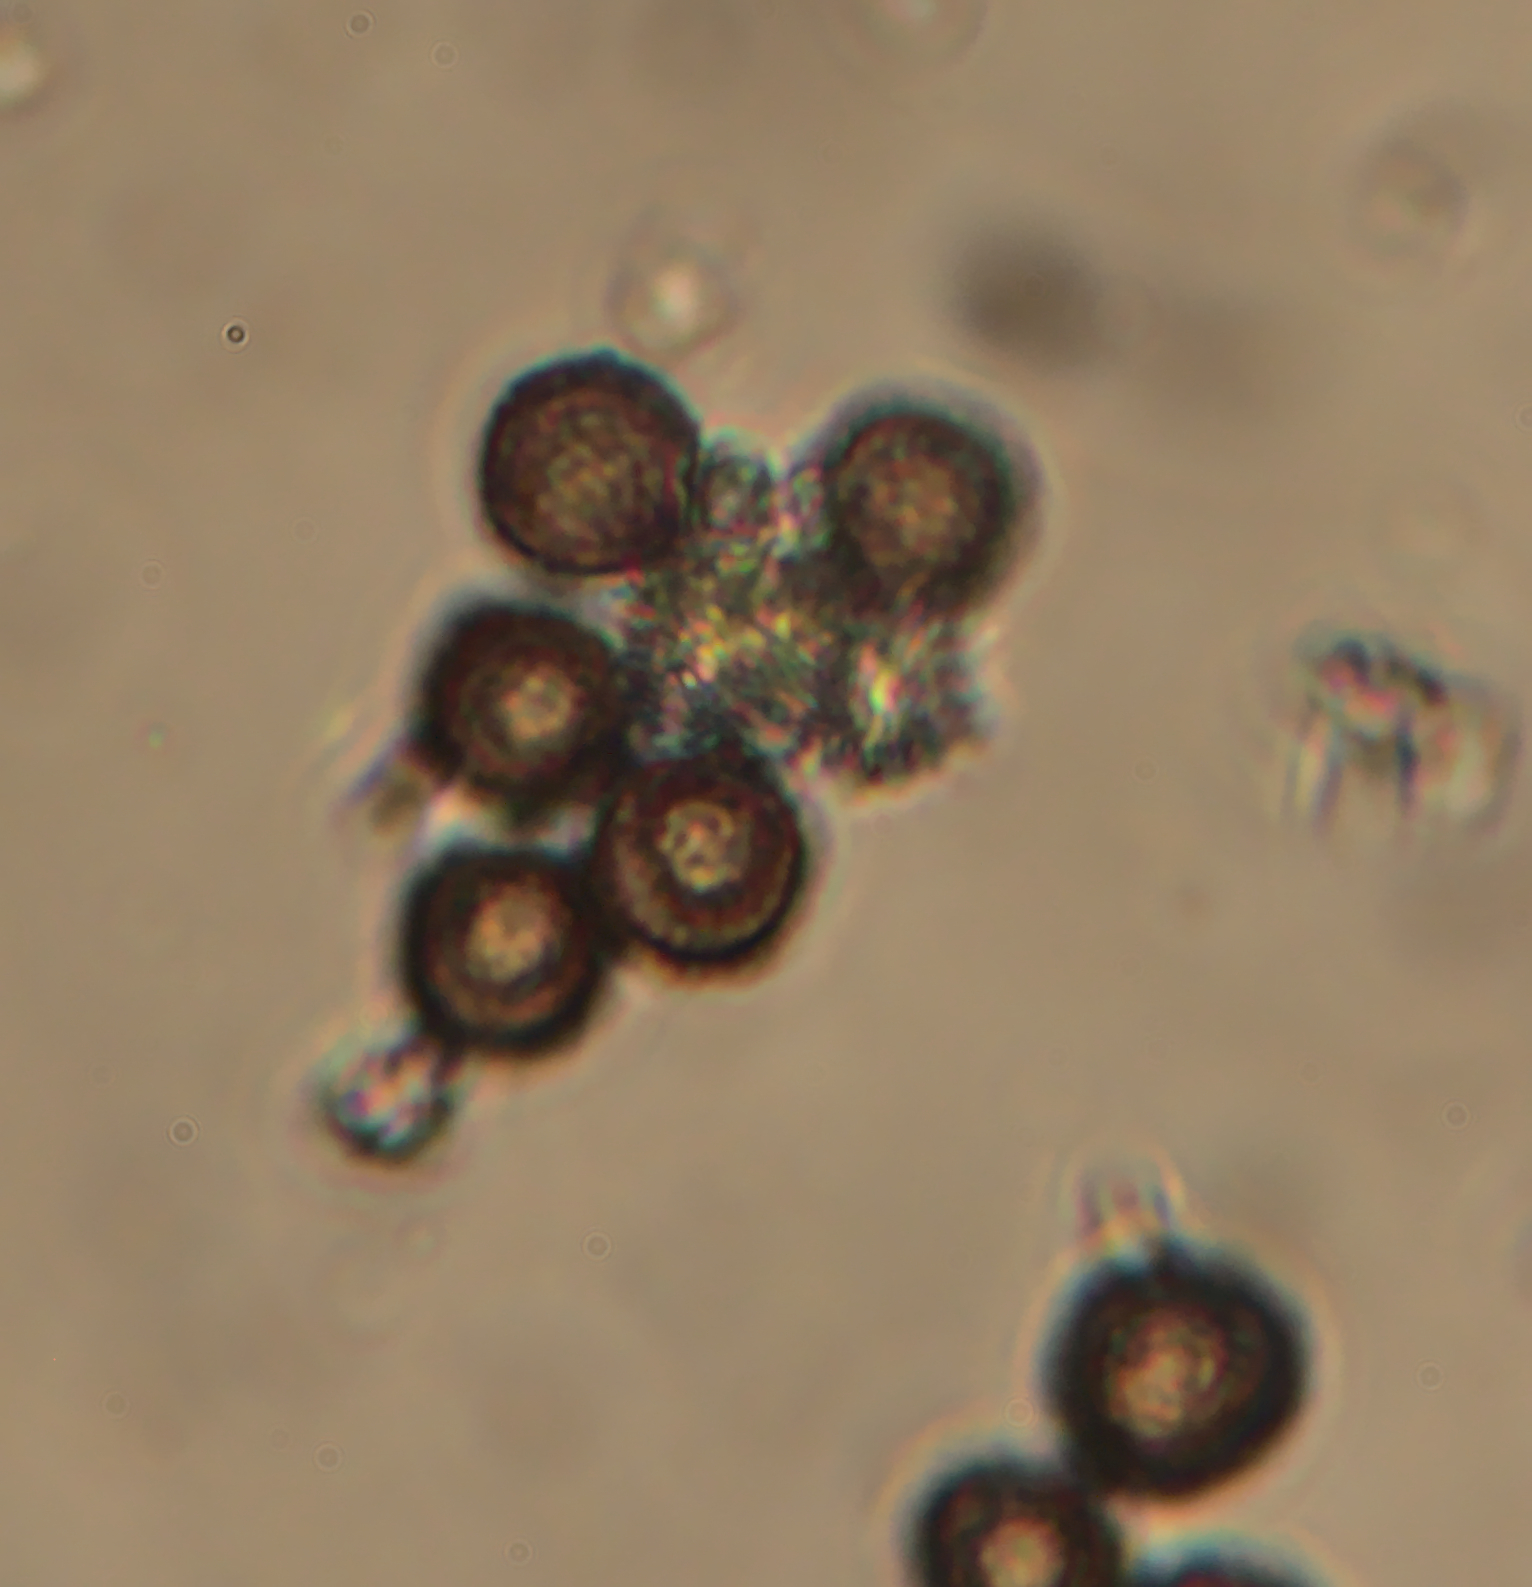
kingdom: Protozoa
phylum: Mycetozoa
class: Myxomycetes
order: Physarales
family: Didymiaceae
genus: Didymium
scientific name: Didymium squamulosum
